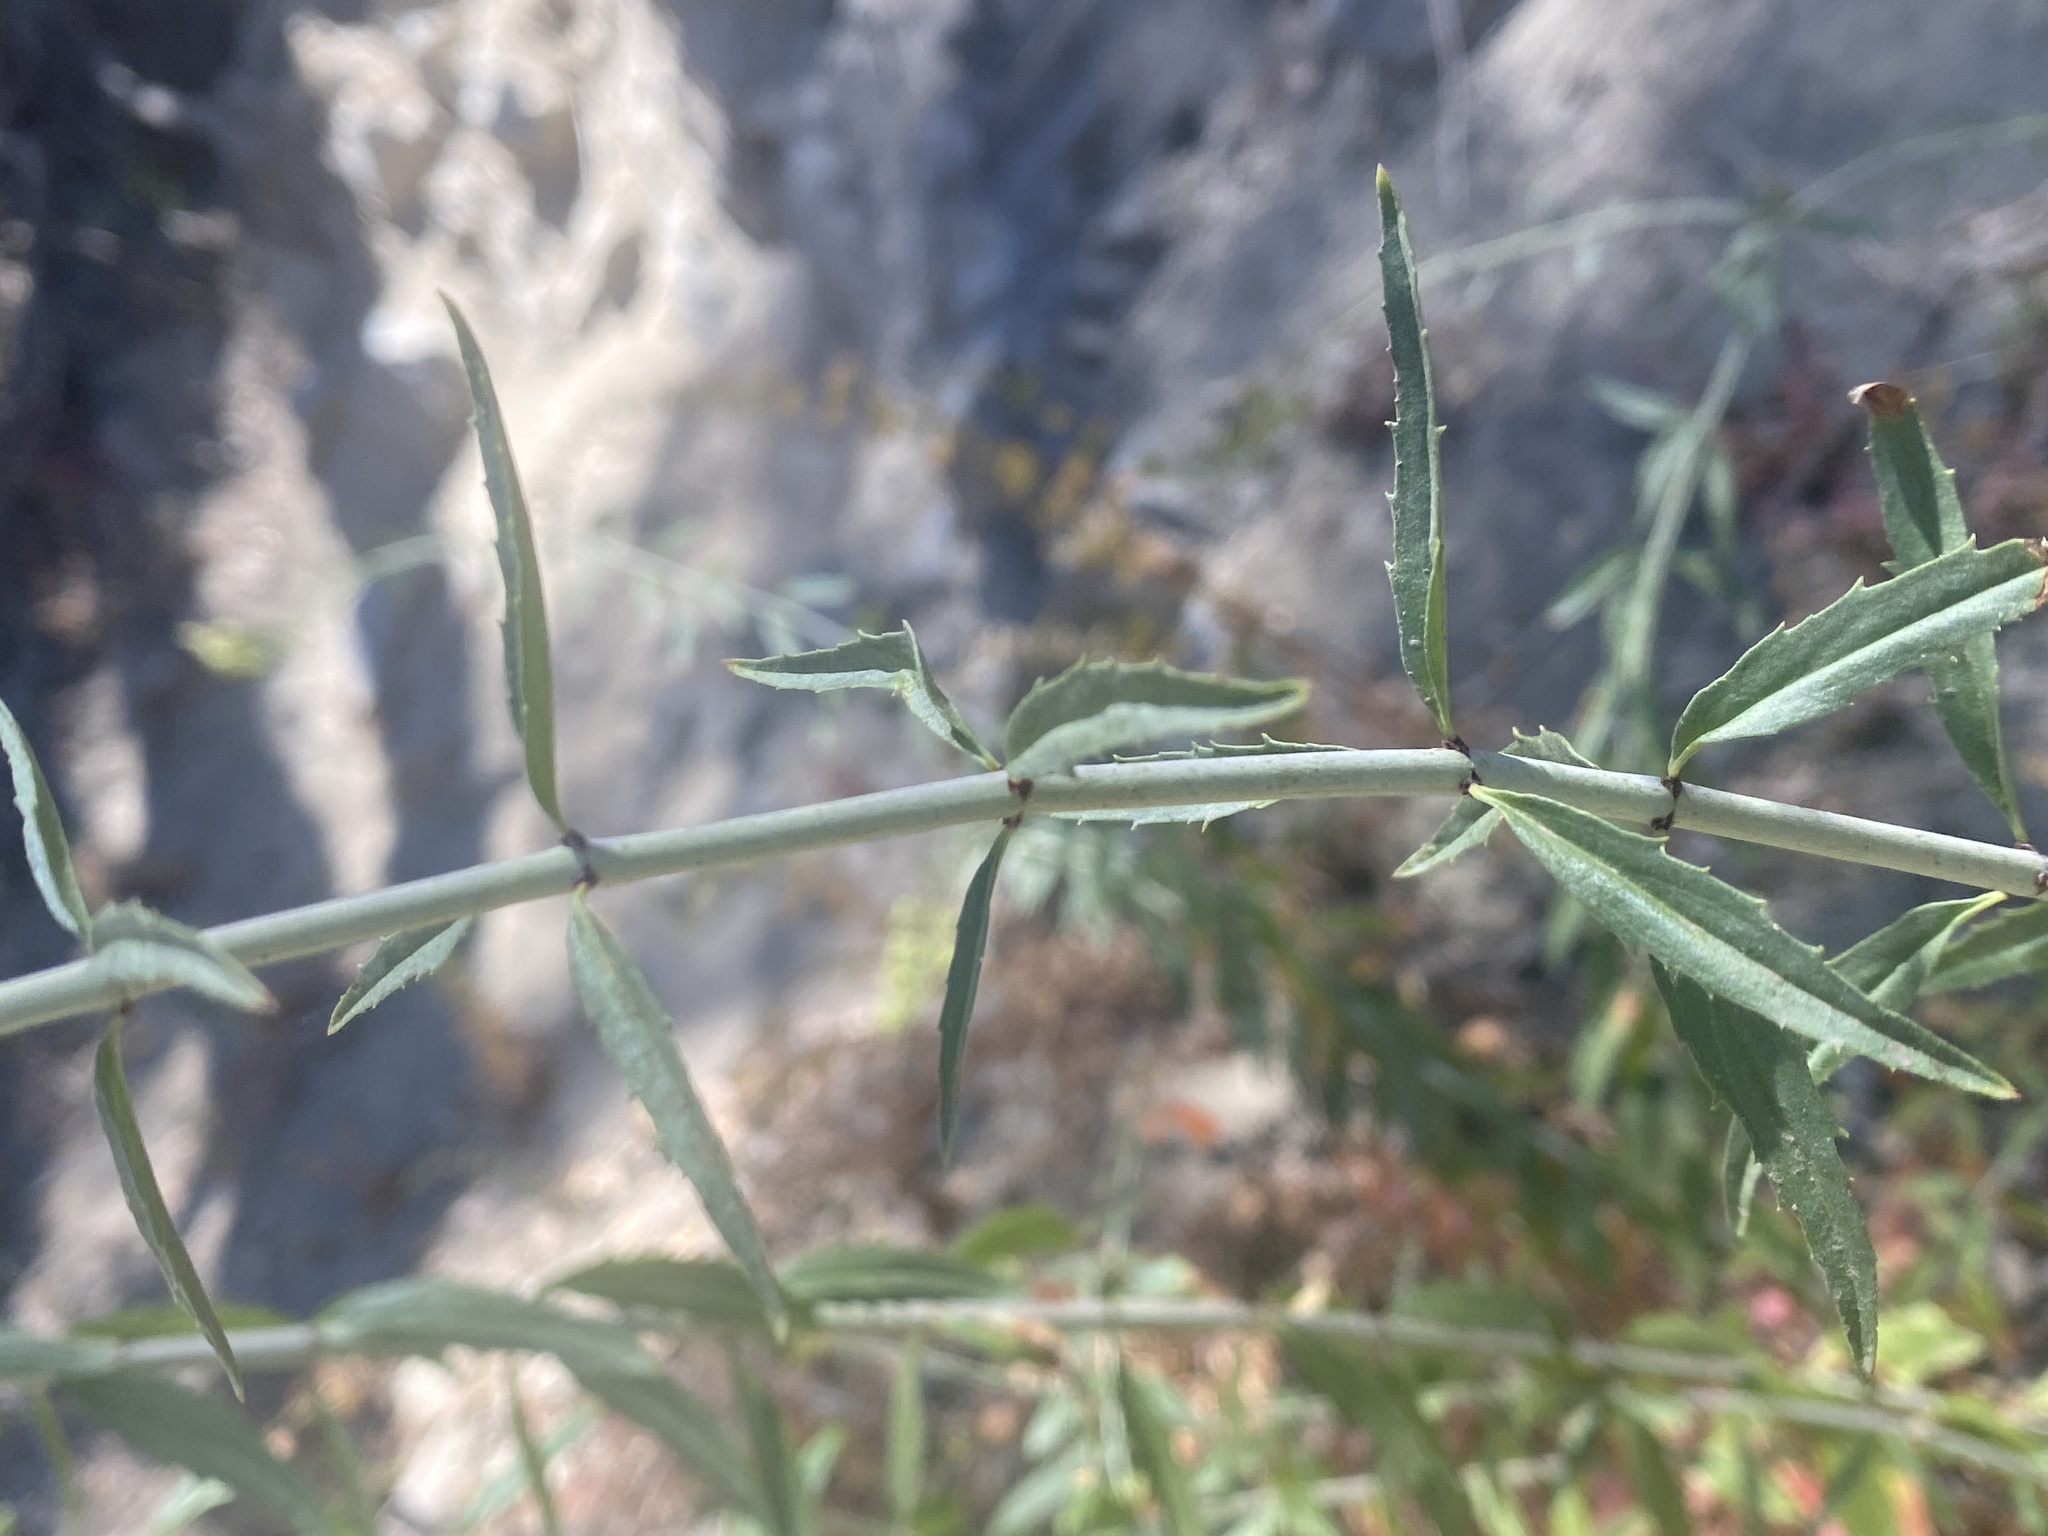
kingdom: Plantae
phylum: Tracheophyta
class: Magnoliopsida
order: Lamiales
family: Plantaginaceae
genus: Keckiella
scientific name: Keckiella ternata
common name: Scarlet keckiella
